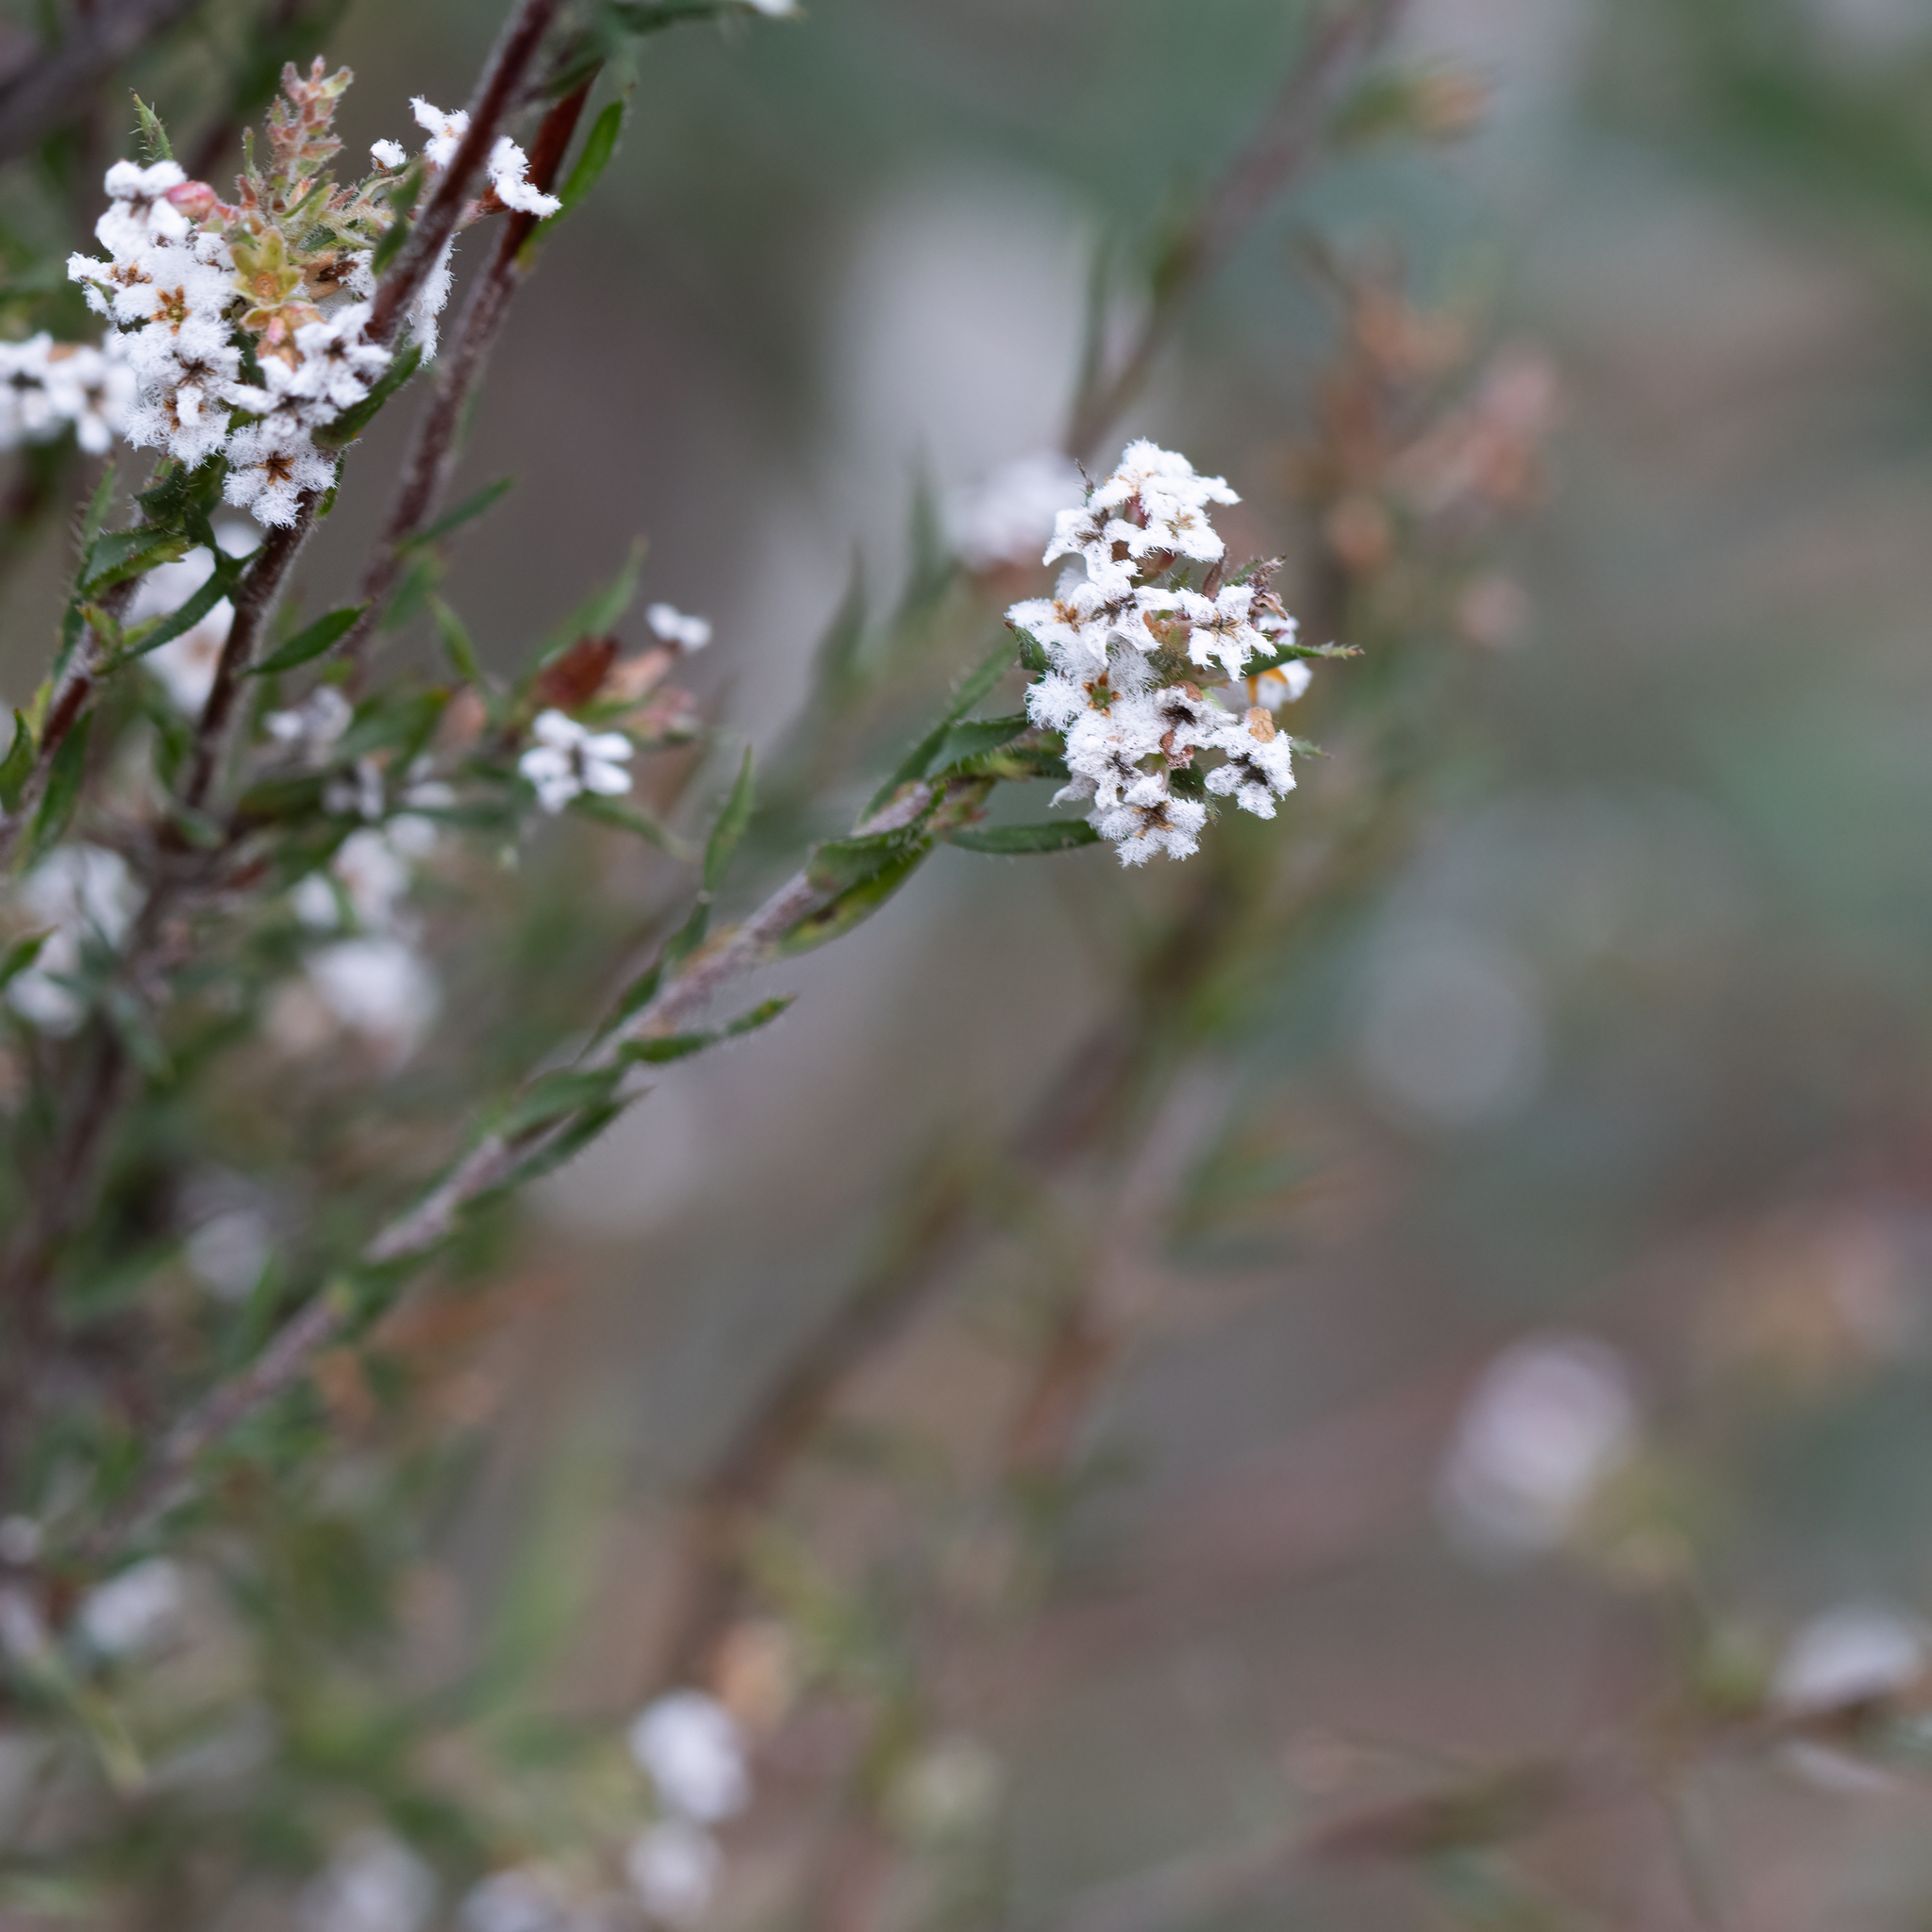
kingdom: Plantae
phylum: Tracheophyta
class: Magnoliopsida
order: Ericales
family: Ericaceae
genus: Leucopogon
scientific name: Leucopogon glacialis
